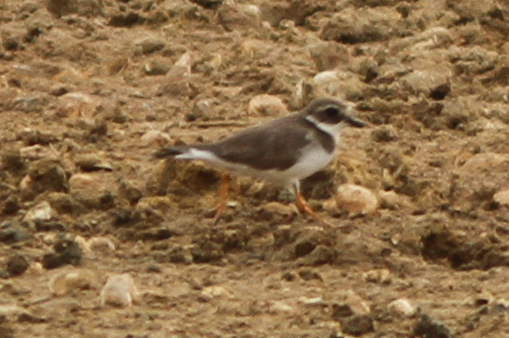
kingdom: Animalia
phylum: Chordata
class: Aves
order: Charadriiformes
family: Charadriidae
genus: Charadrius
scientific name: Charadrius hiaticula
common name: Common ringed plover
